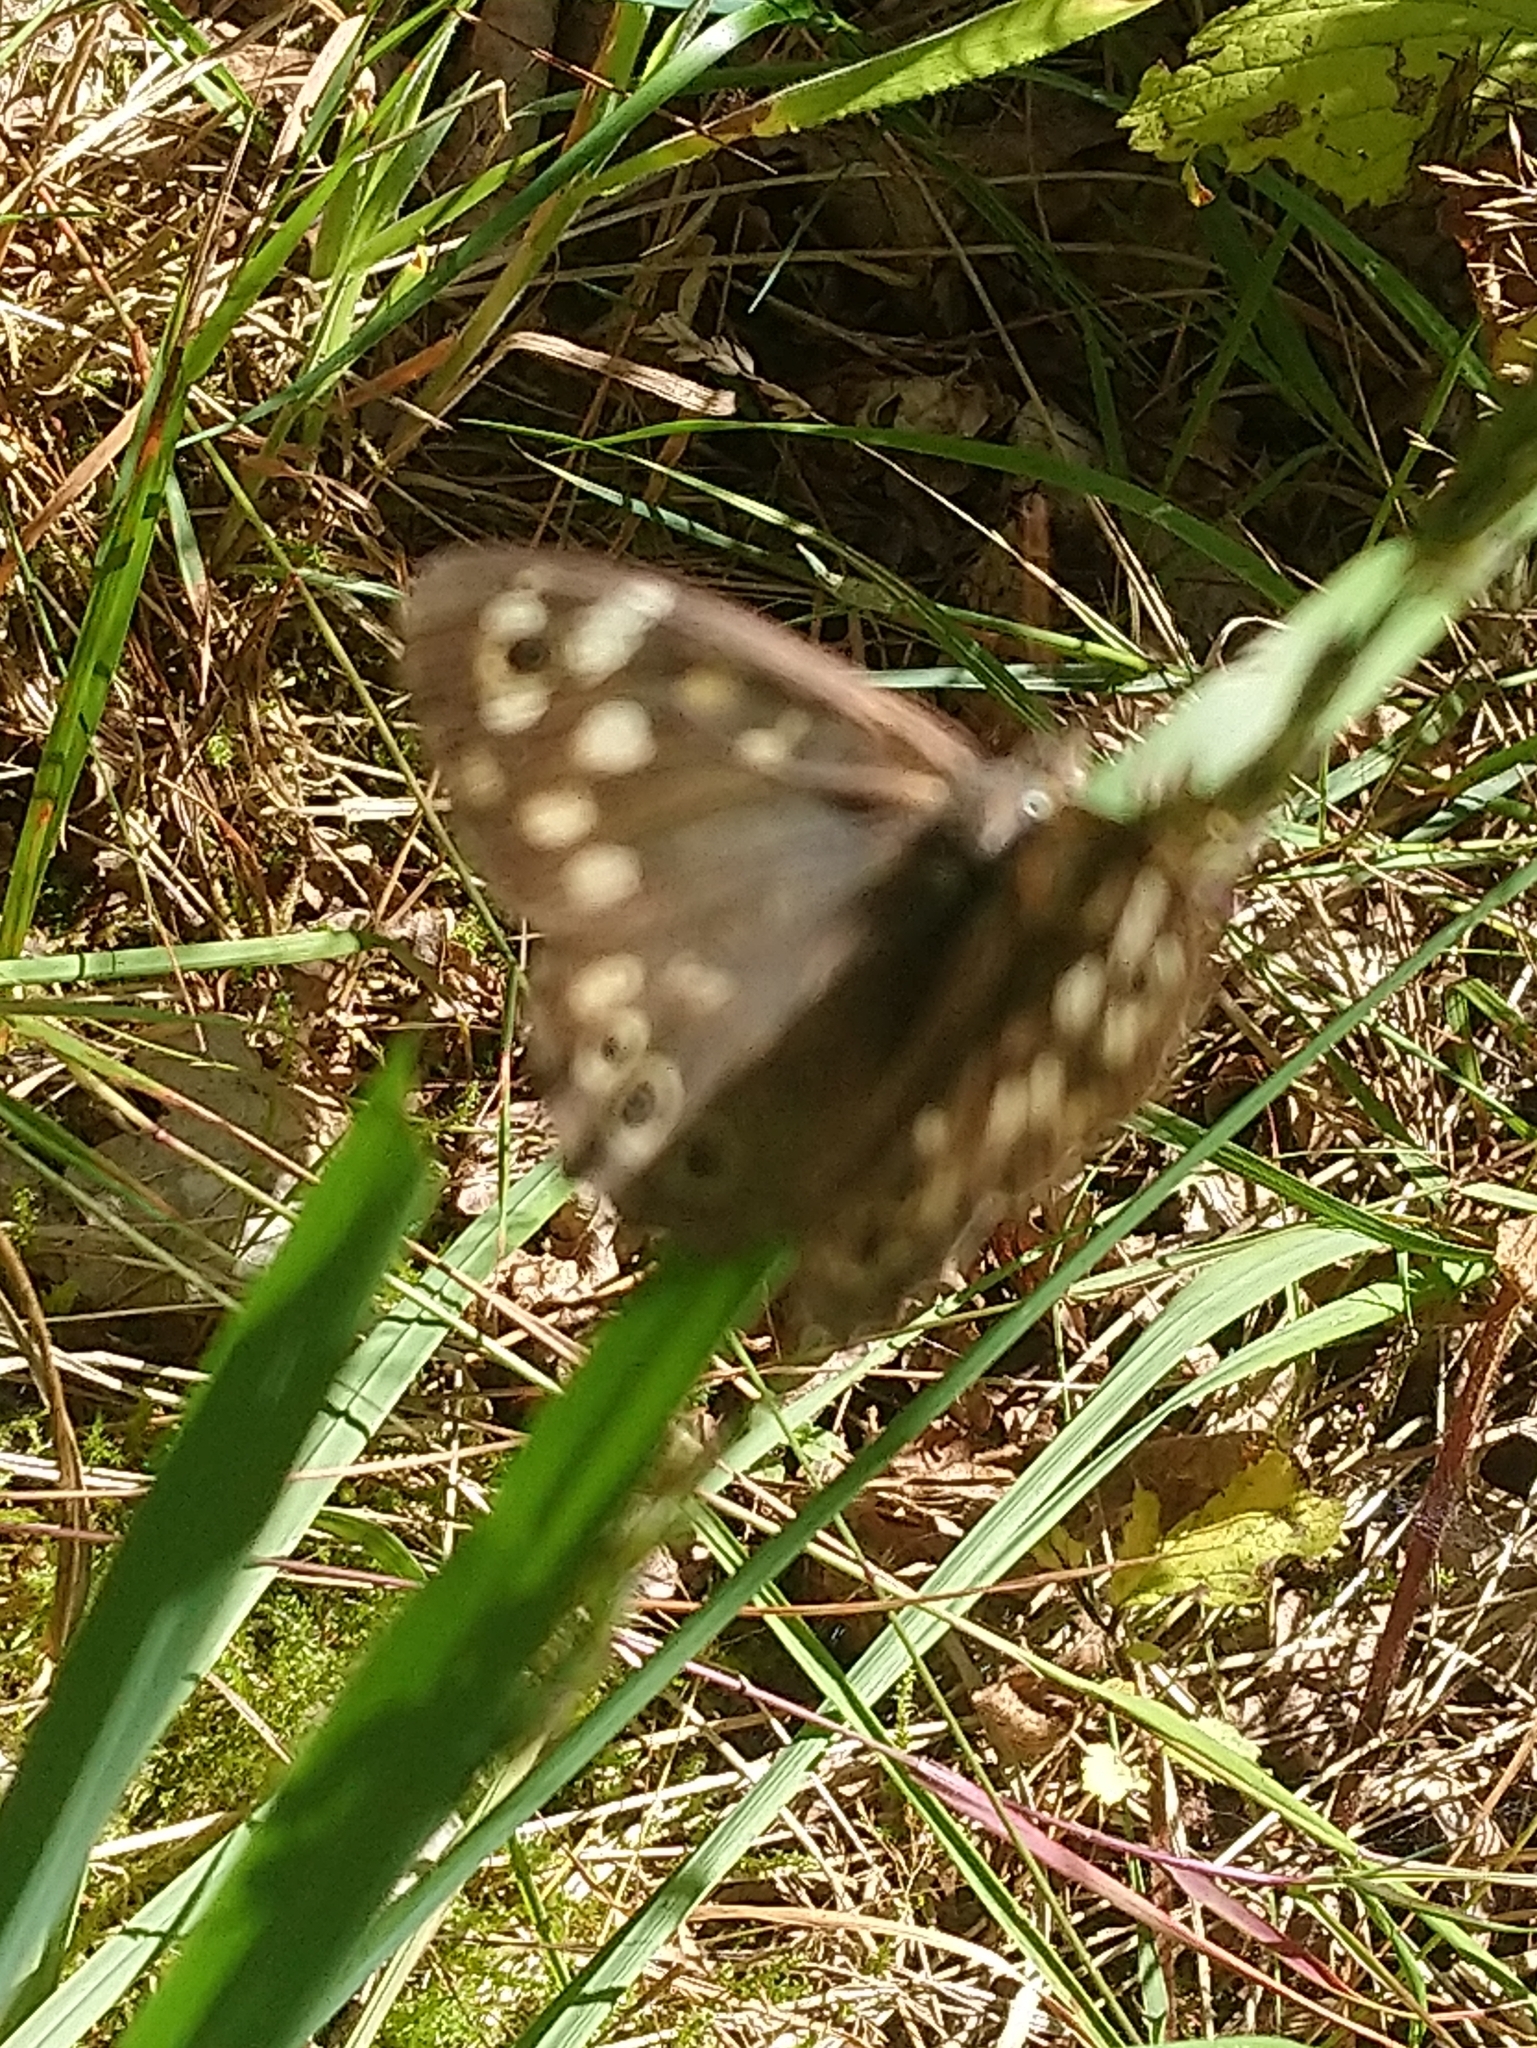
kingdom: Animalia
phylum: Arthropoda
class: Insecta
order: Lepidoptera
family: Nymphalidae
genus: Pararge
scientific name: Pararge aegeria
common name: Speckled wood
